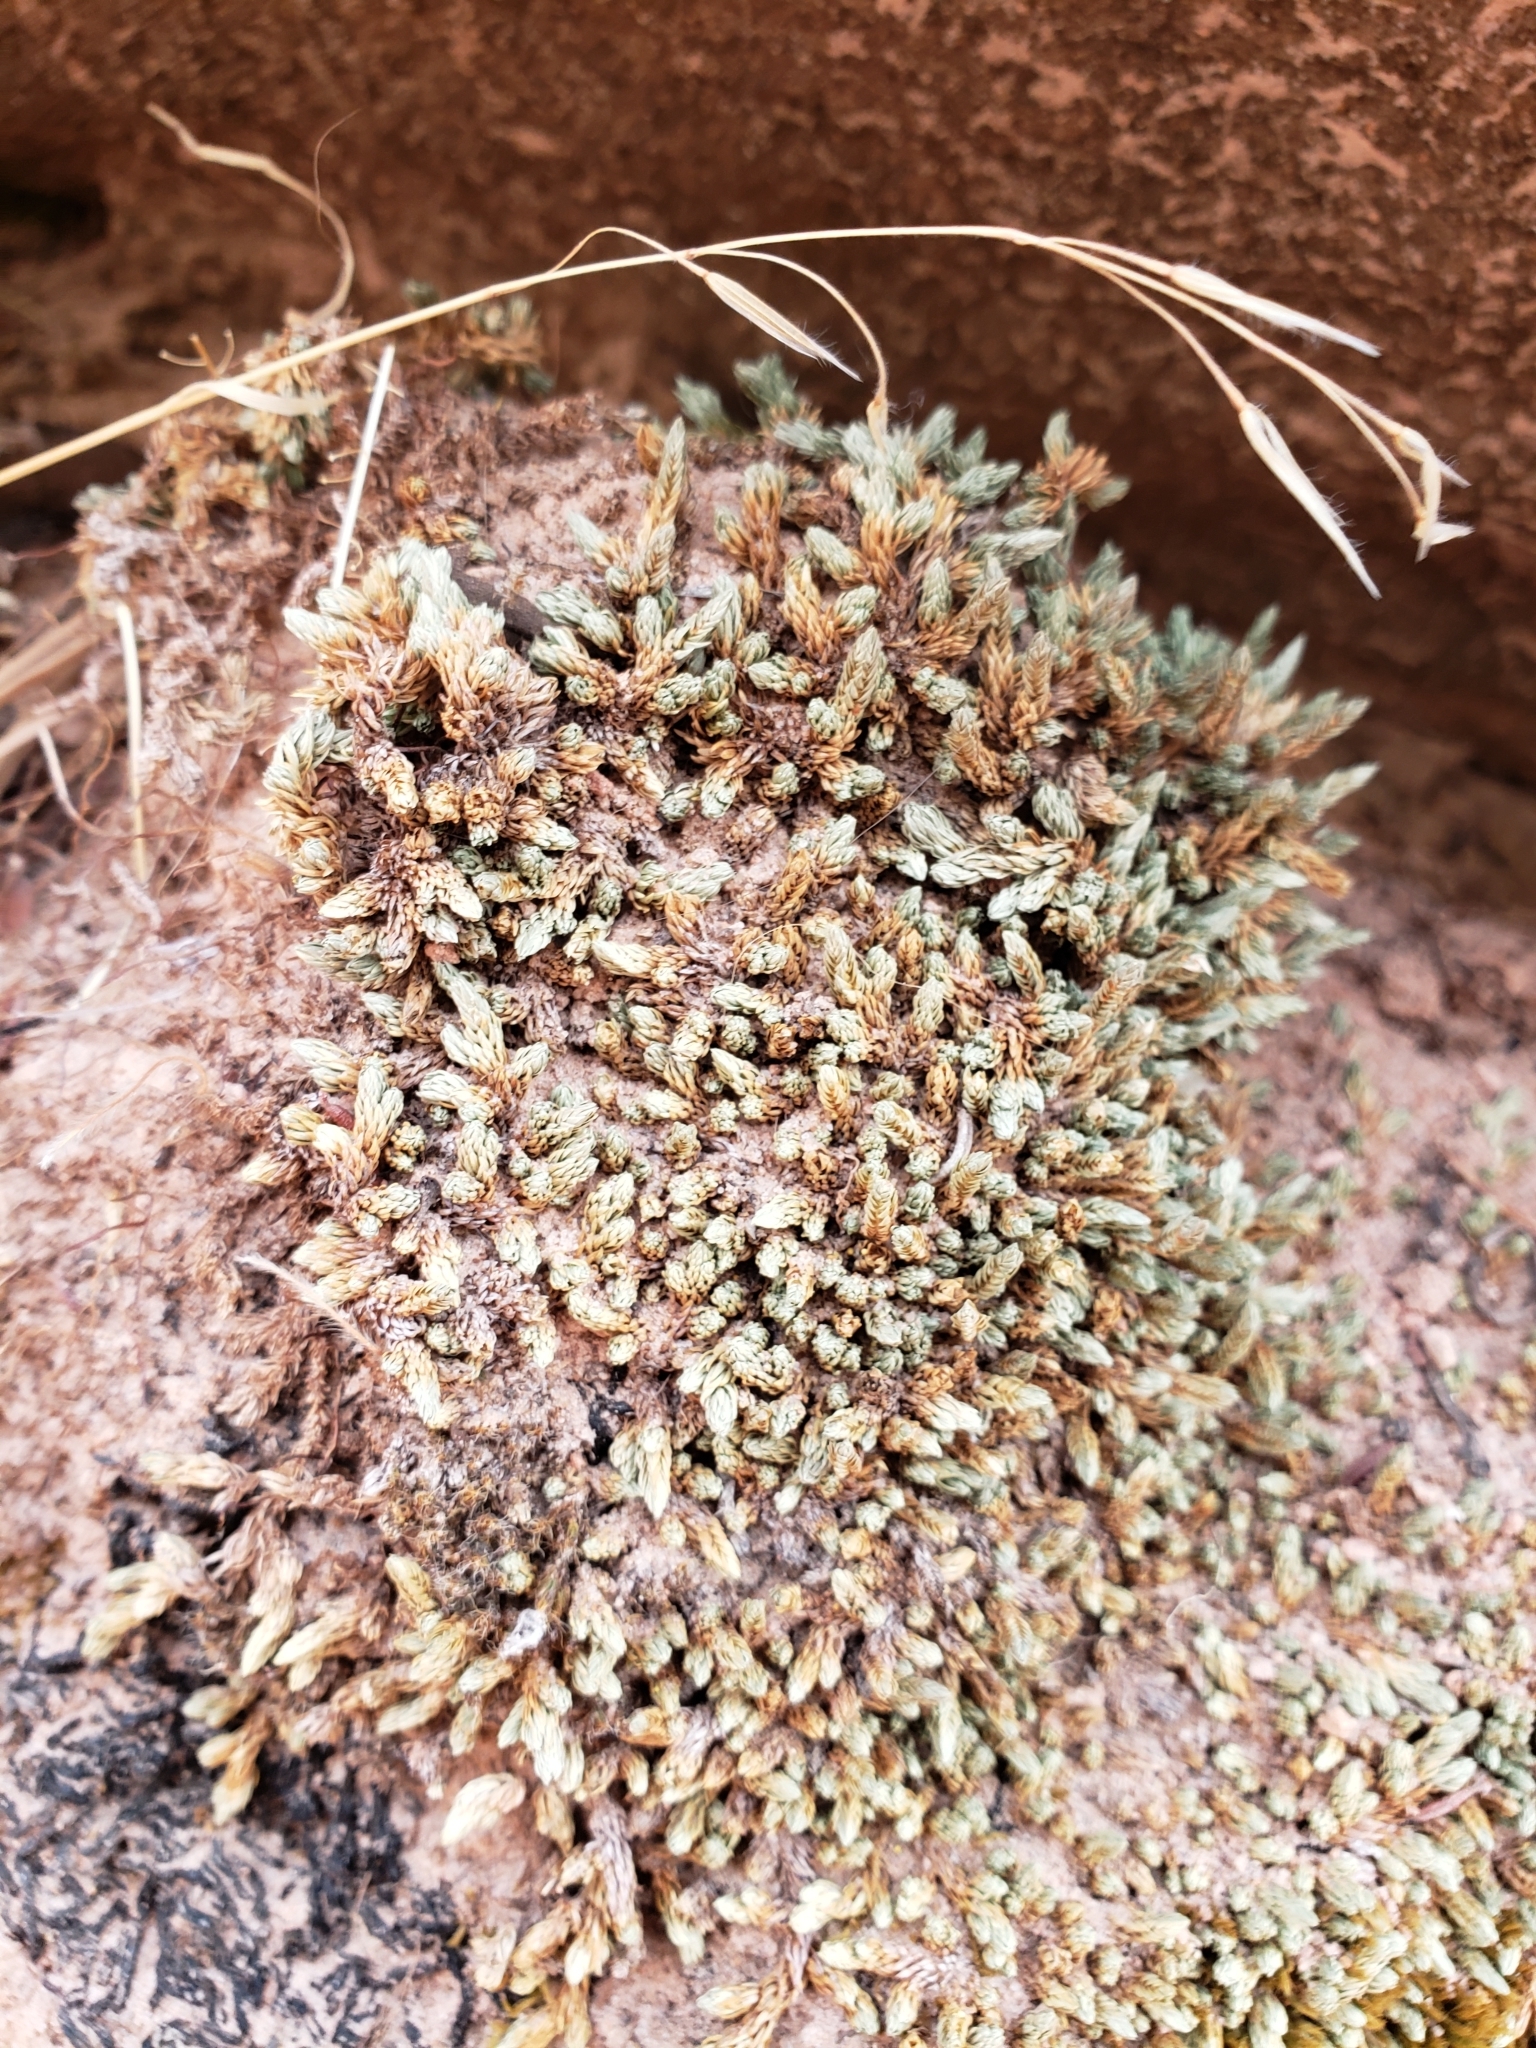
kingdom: Plantae
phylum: Tracheophyta
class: Lycopodiopsida
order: Selaginellales
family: Selaginellaceae
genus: Selaginella
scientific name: Selaginella utahensis
